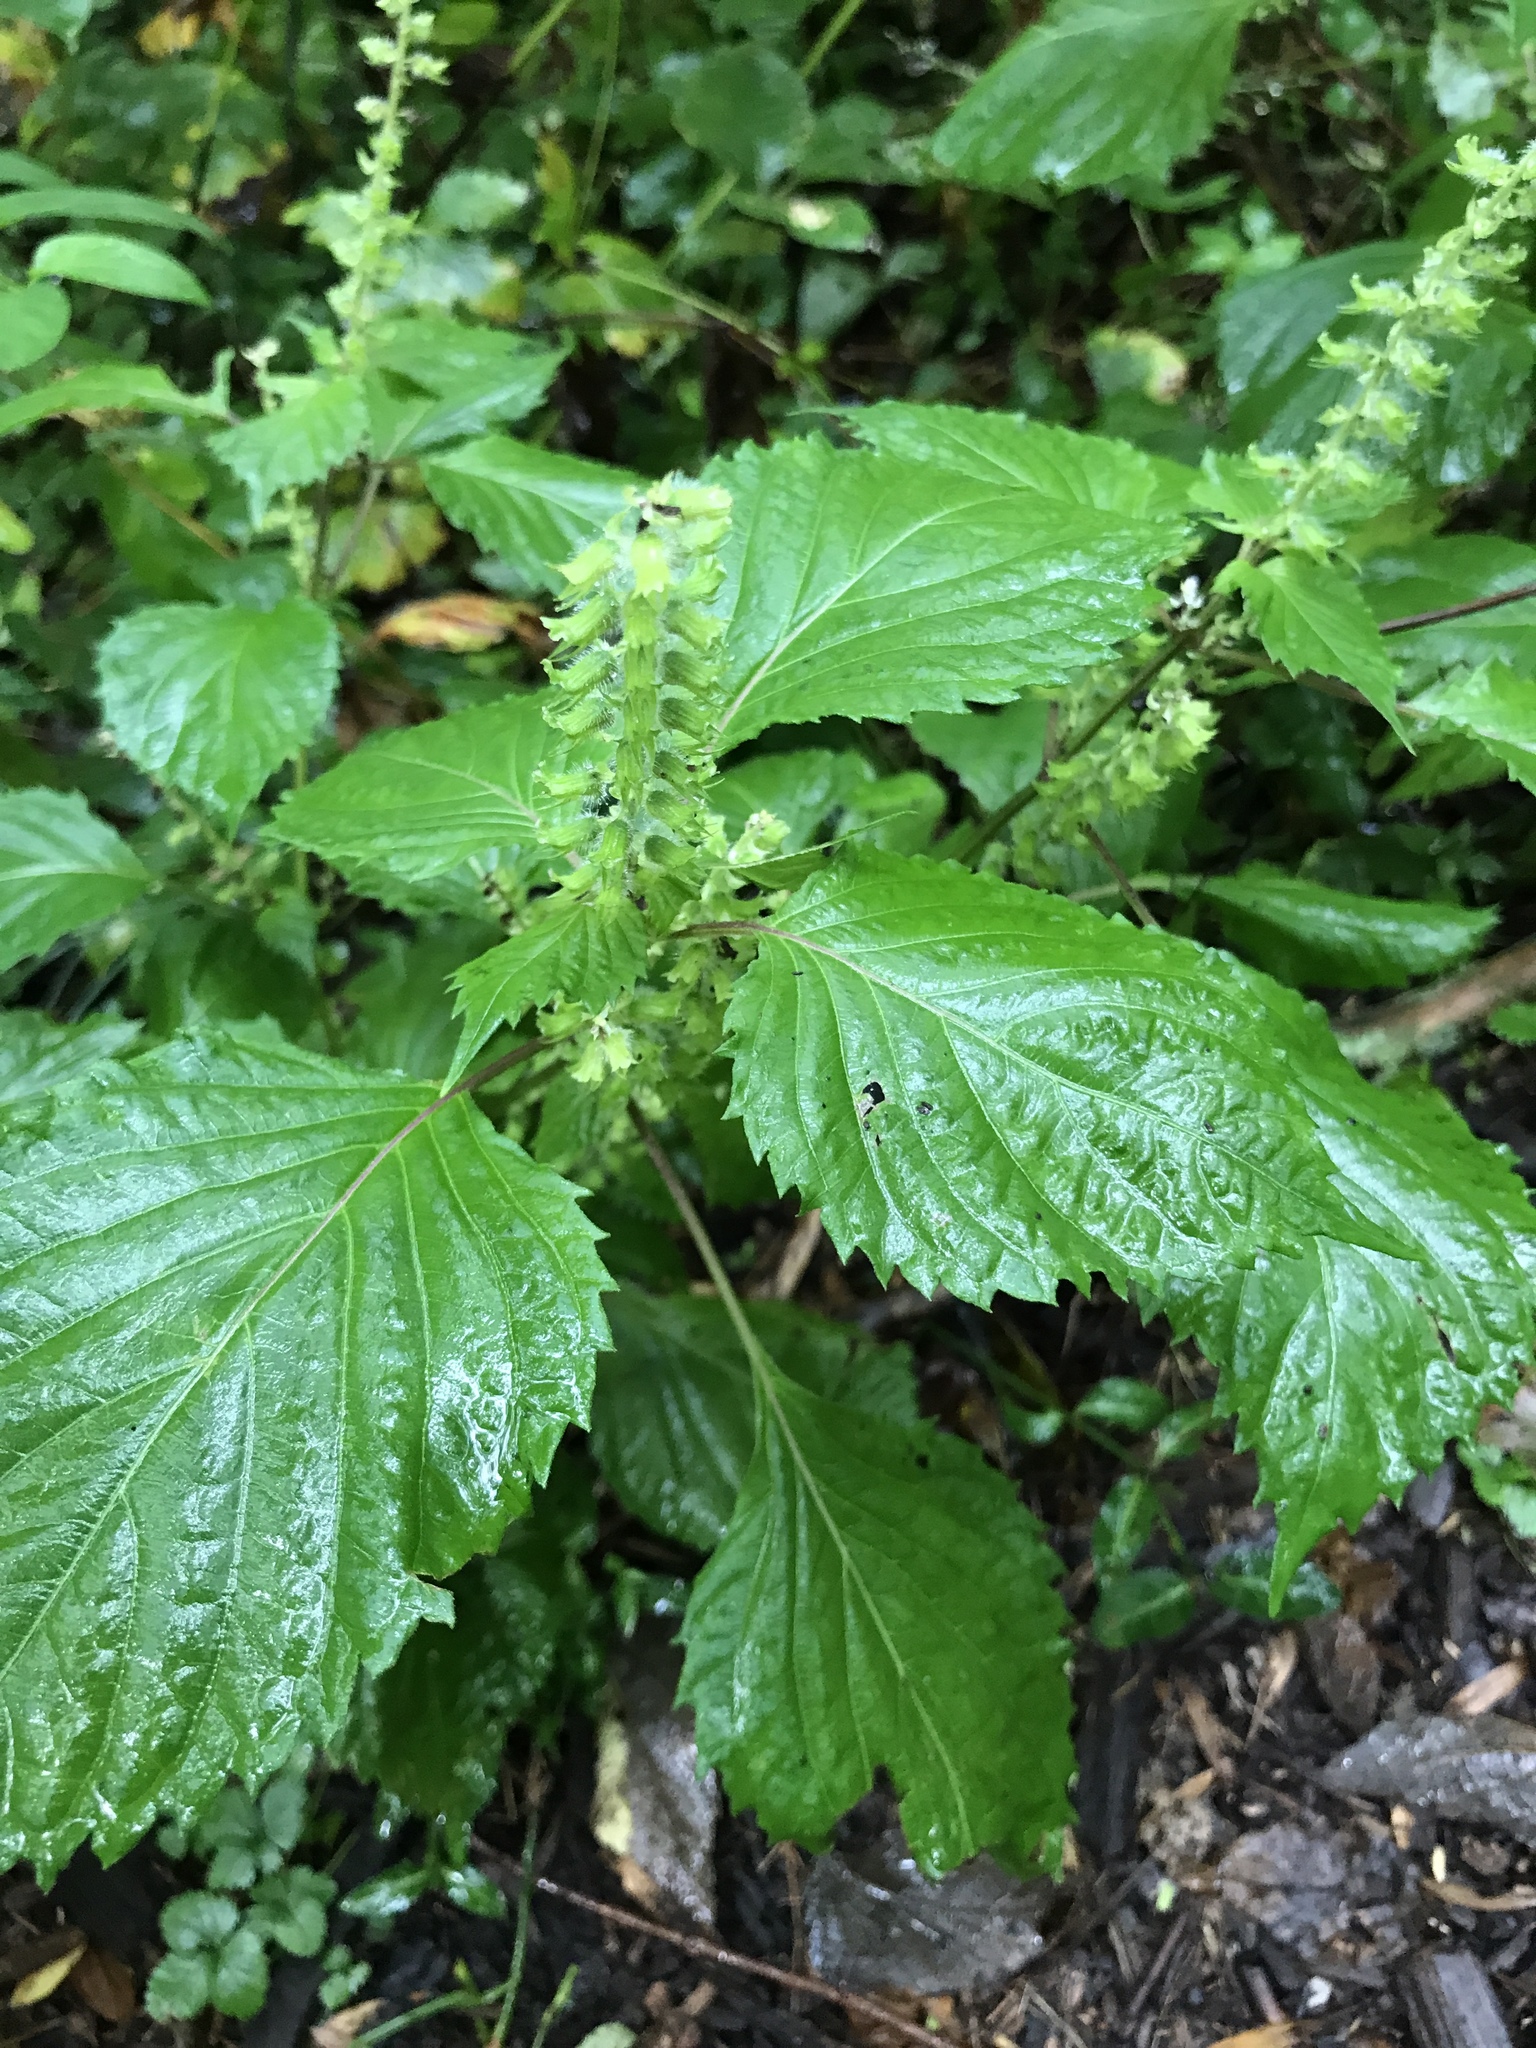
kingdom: Plantae
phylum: Tracheophyta
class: Magnoliopsida
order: Lamiales
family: Lamiaceae
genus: Perilla
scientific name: Perilla frutescens
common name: Perilla
